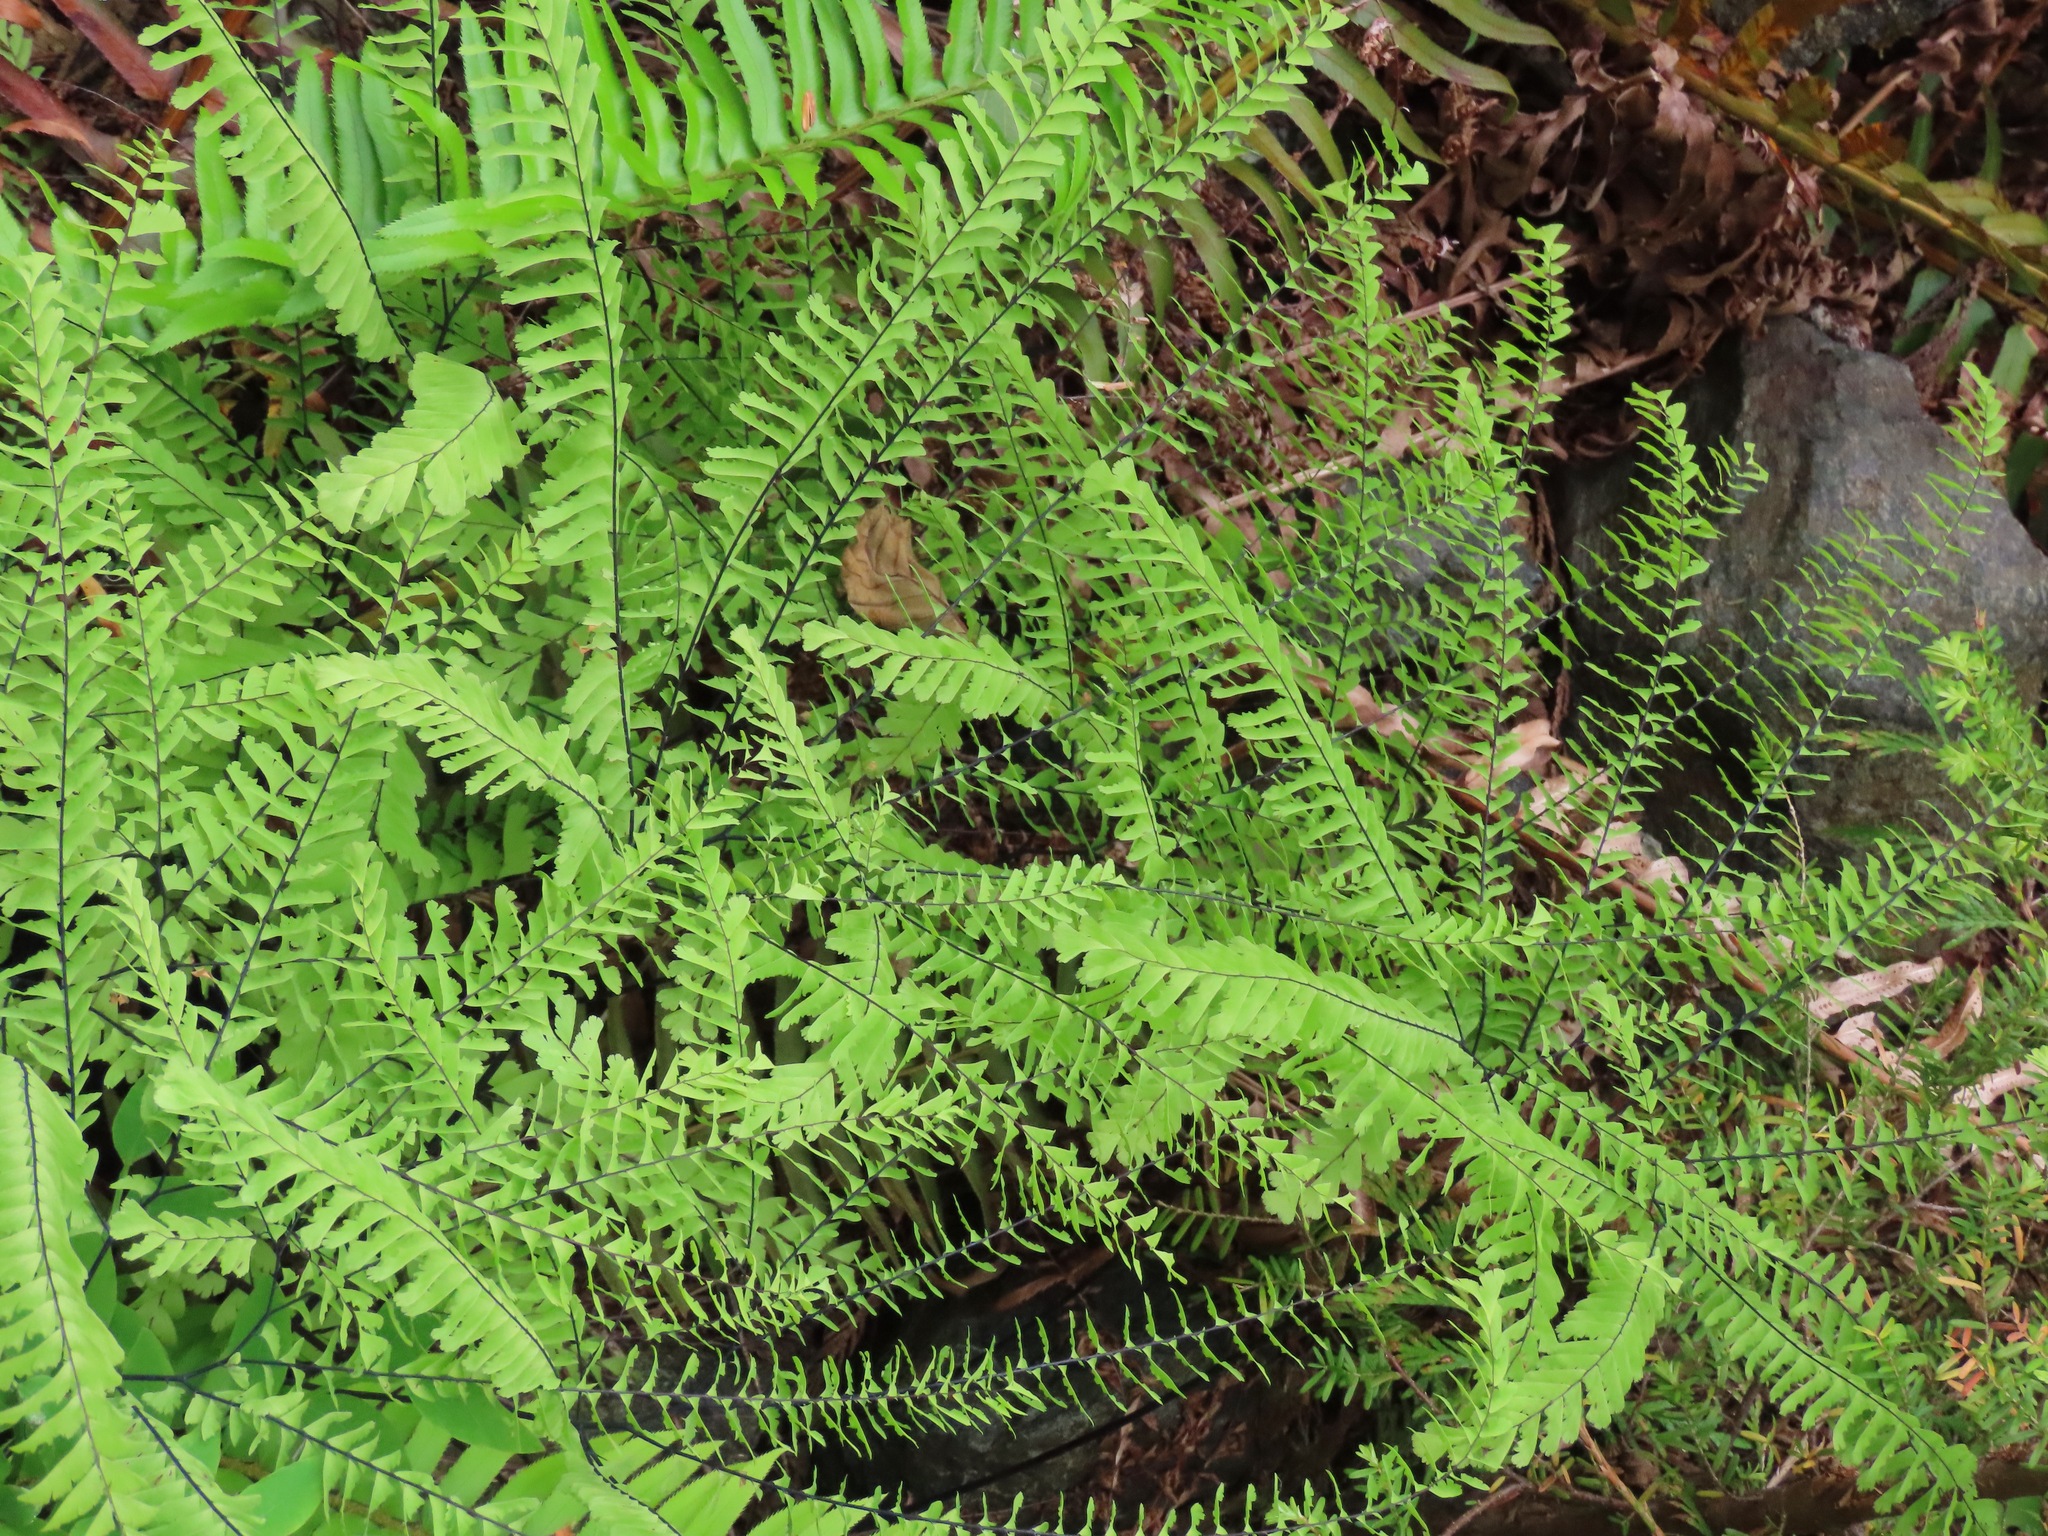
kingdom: Plantae
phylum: Tracheophyta
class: Polypodiopsida
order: Polypodiales
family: Pteridaceae
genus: Adiantum
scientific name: Adiantum aleuticum
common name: Aleutian maidenhair fern
